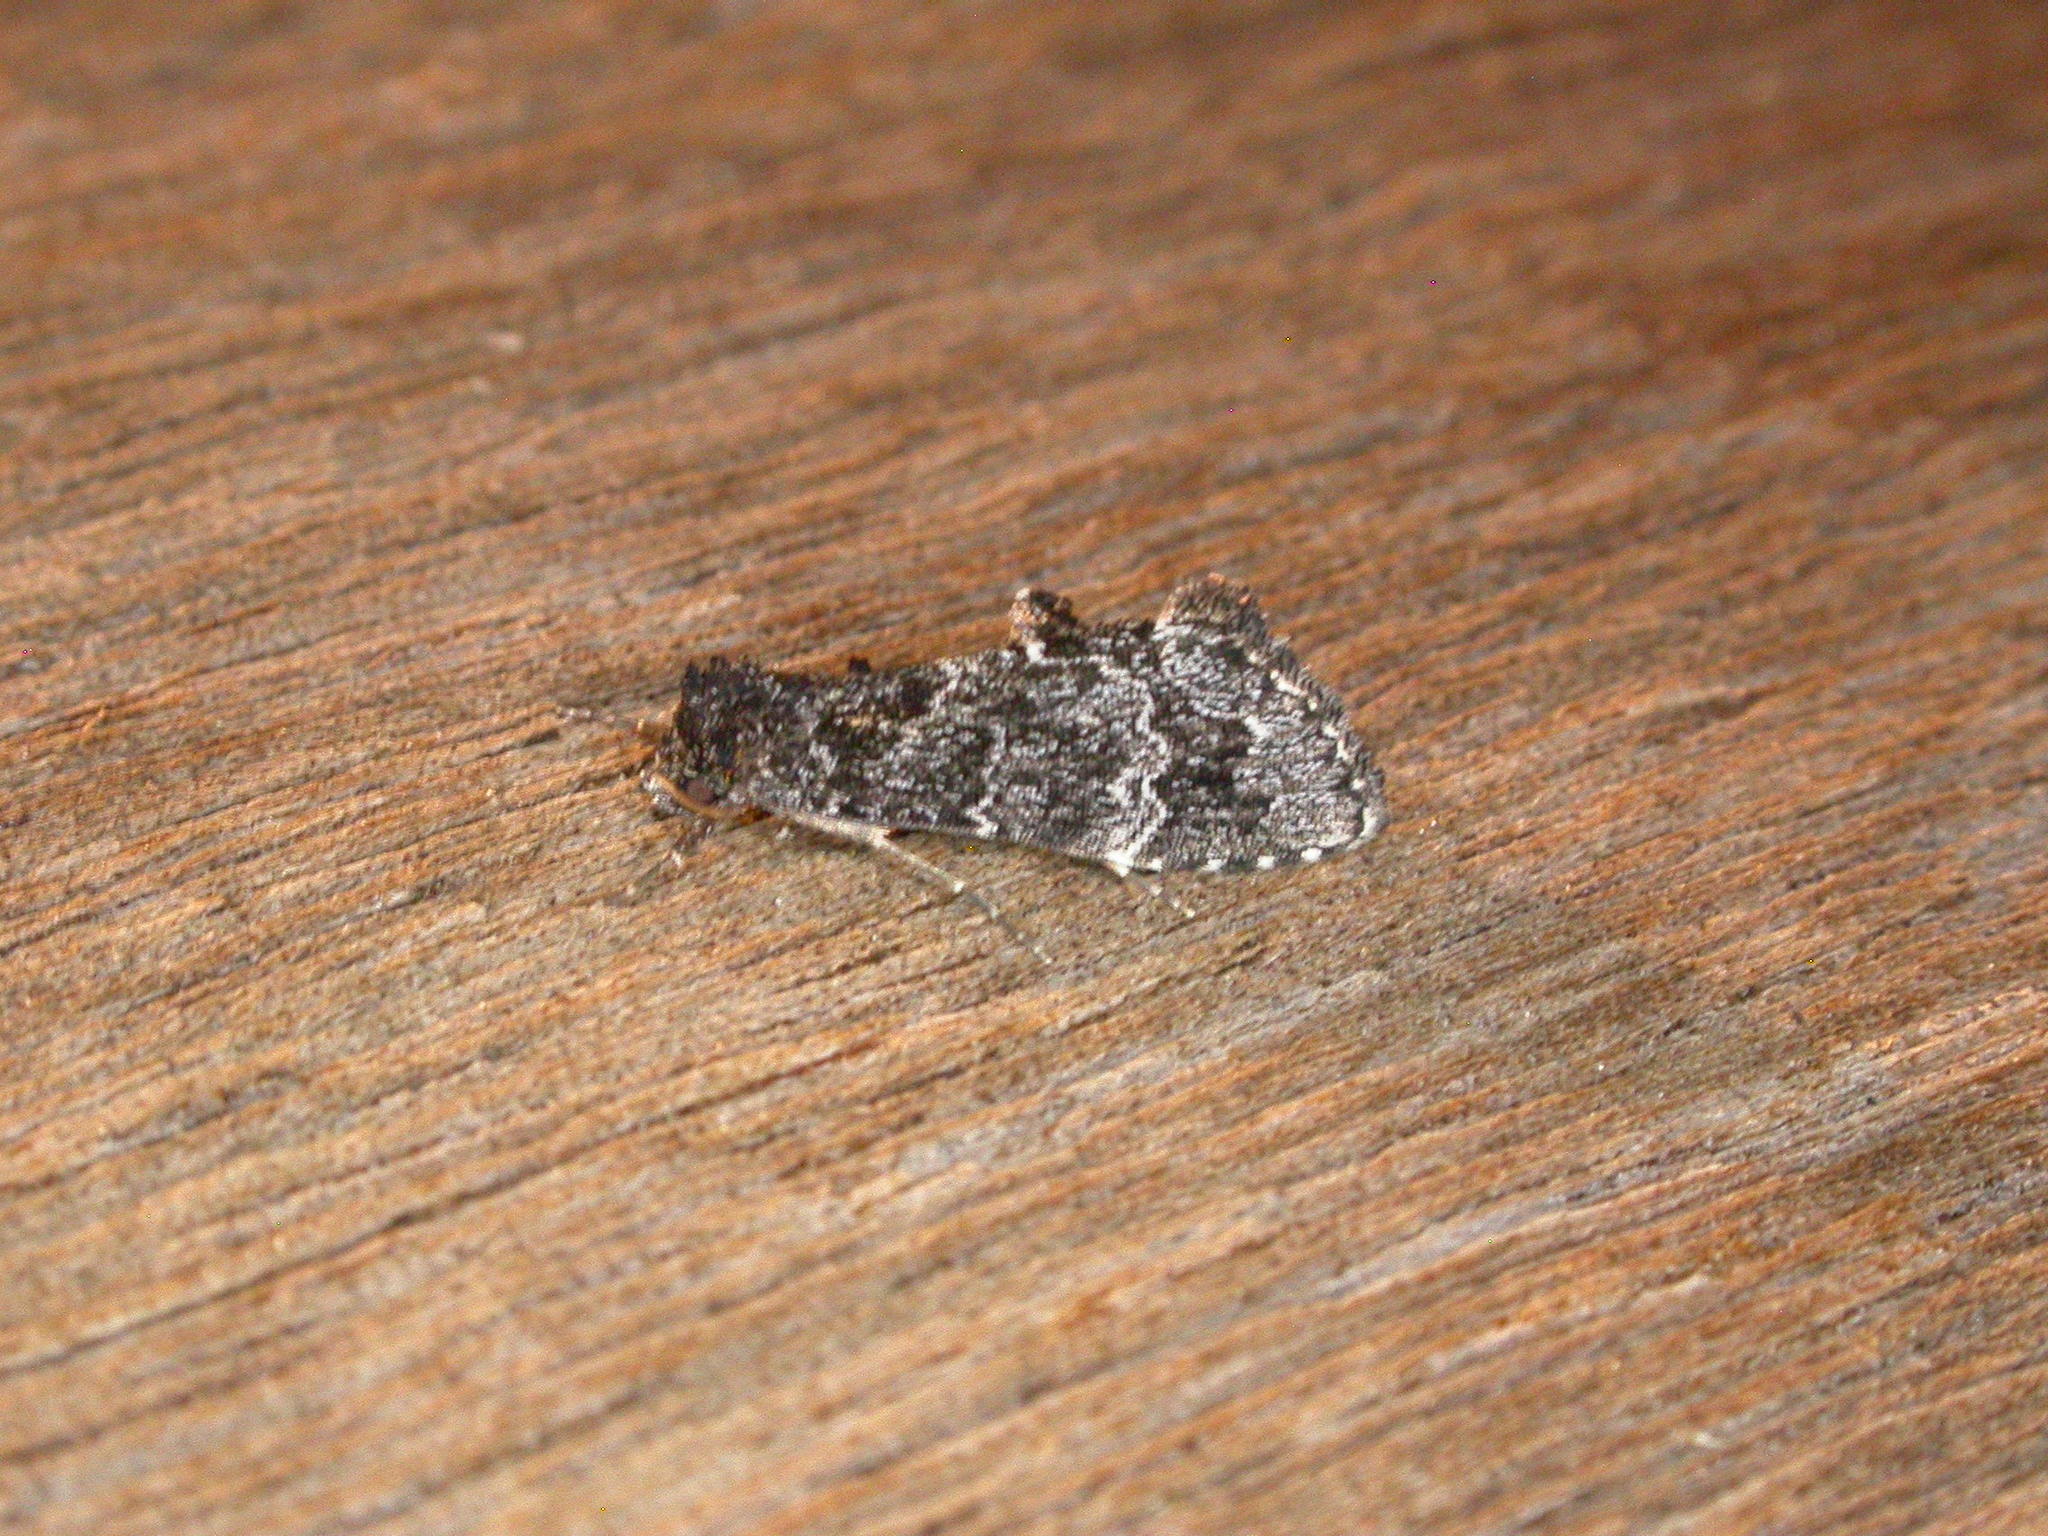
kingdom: Animalia
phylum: Arthropoda
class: Insecta
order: Lepidoptera
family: Erebidae
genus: Arrade
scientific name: Arrade destituta
